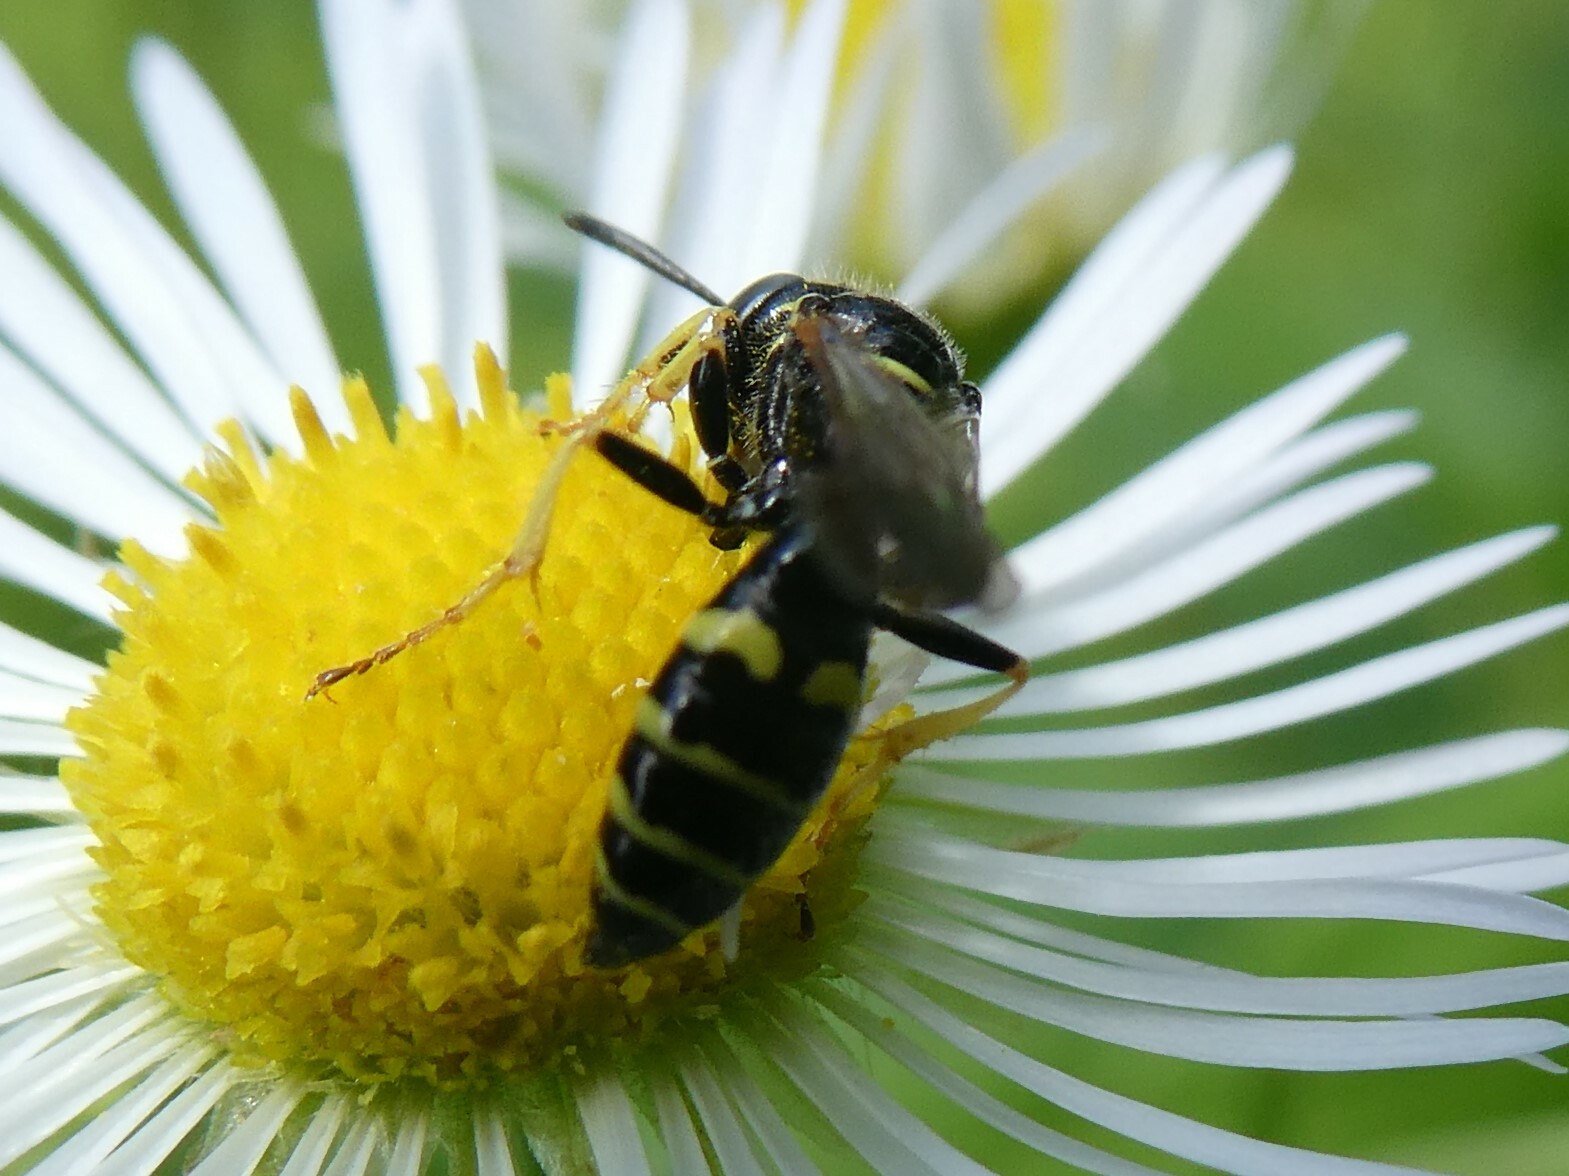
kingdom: Animalia
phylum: Arthropoda
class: Insecta
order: Hymenoptera
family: Crabronidae
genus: Philanthus
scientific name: Philanthus bilunatus
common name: Two moons beewolf
